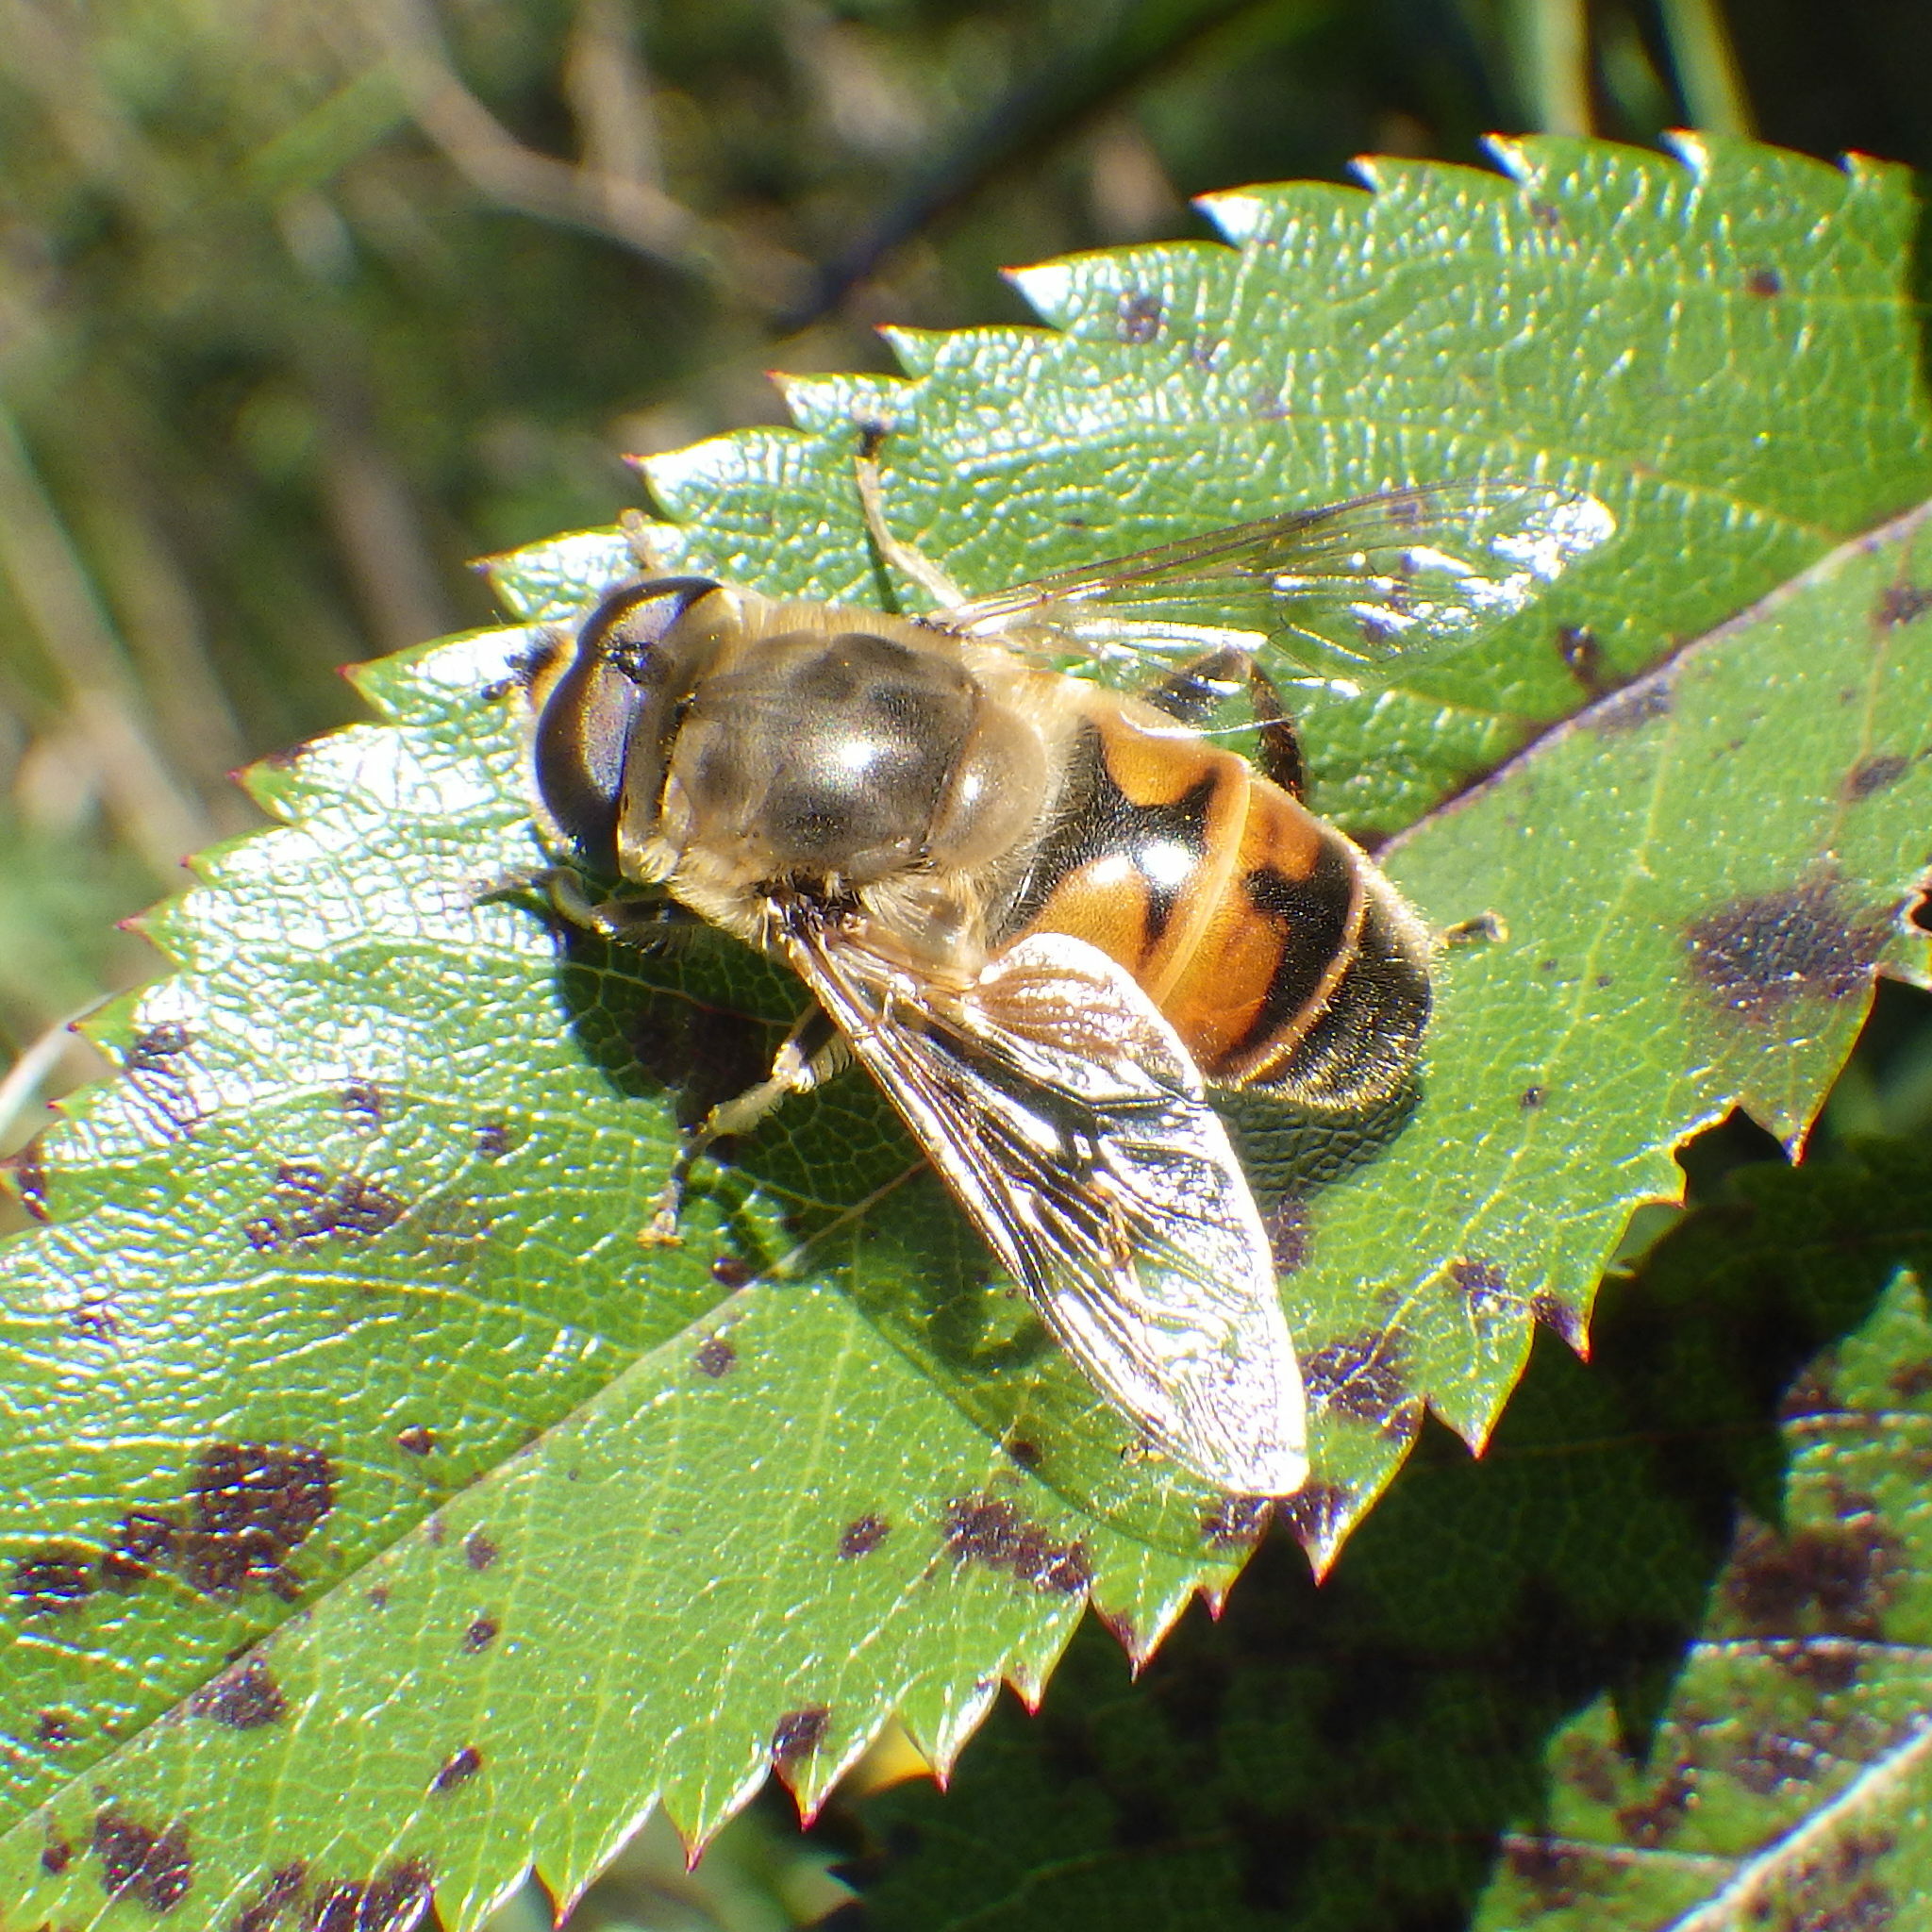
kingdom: Animalia
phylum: Arthropoda
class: Insecta
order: Diptera
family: Syrphidae
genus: Eristalis
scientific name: Eristalis tenax
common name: Drone fly
